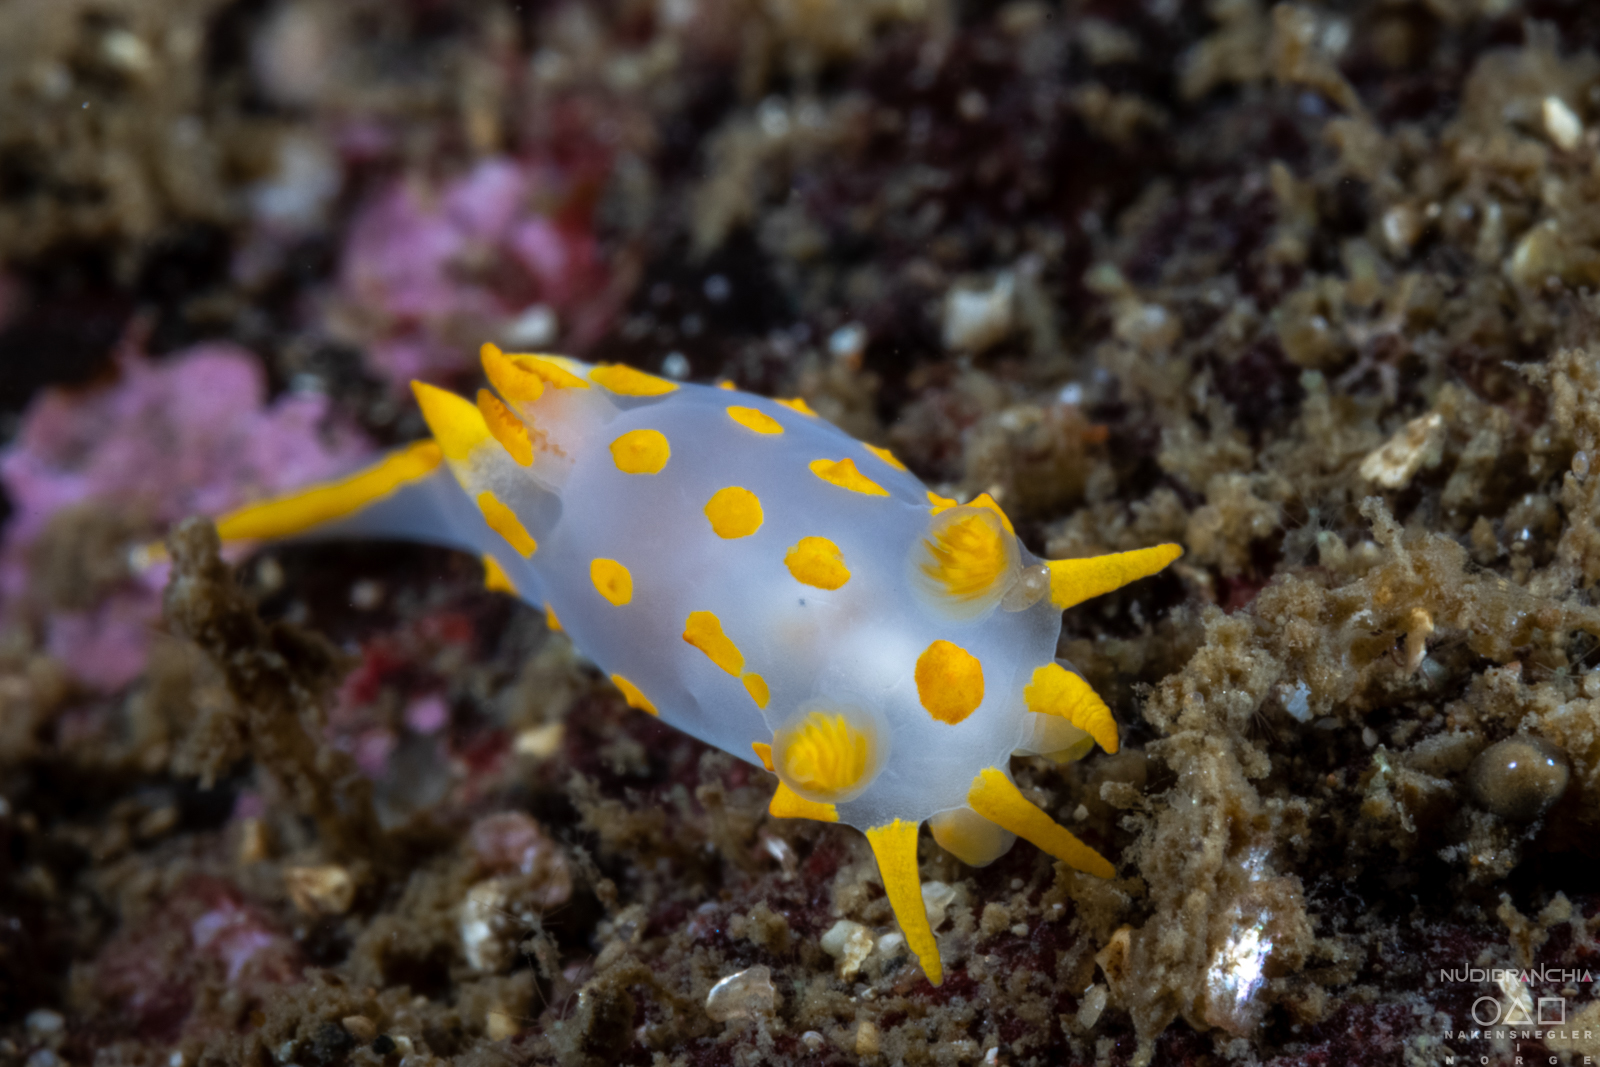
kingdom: Animalia
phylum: Mollusca
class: Gastropoda
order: Nudibranchia
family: Polyceridae
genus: Polycera
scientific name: Polycera quadrilineata
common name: Four-striped polycera
